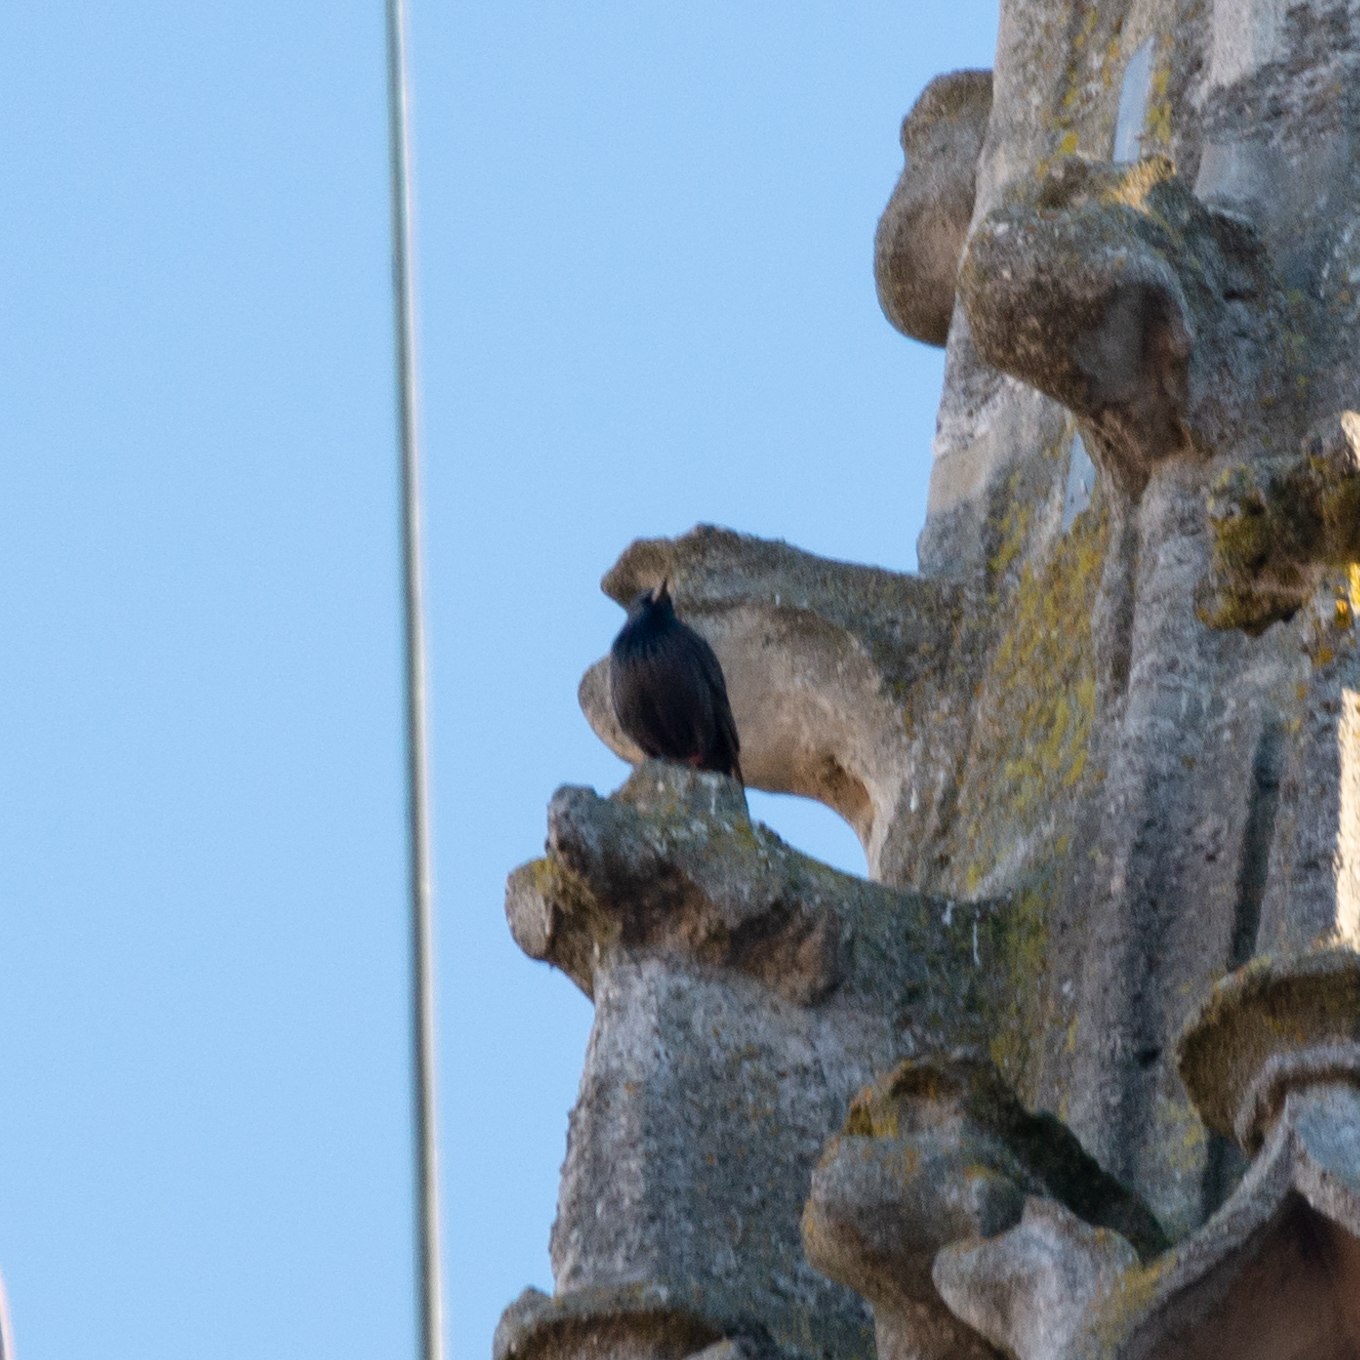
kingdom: Animalia
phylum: Chordata
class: Aves
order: Passeriformes
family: Sturnidae
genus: Sturnus
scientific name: Sturnus unicolor
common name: Spotless starling
